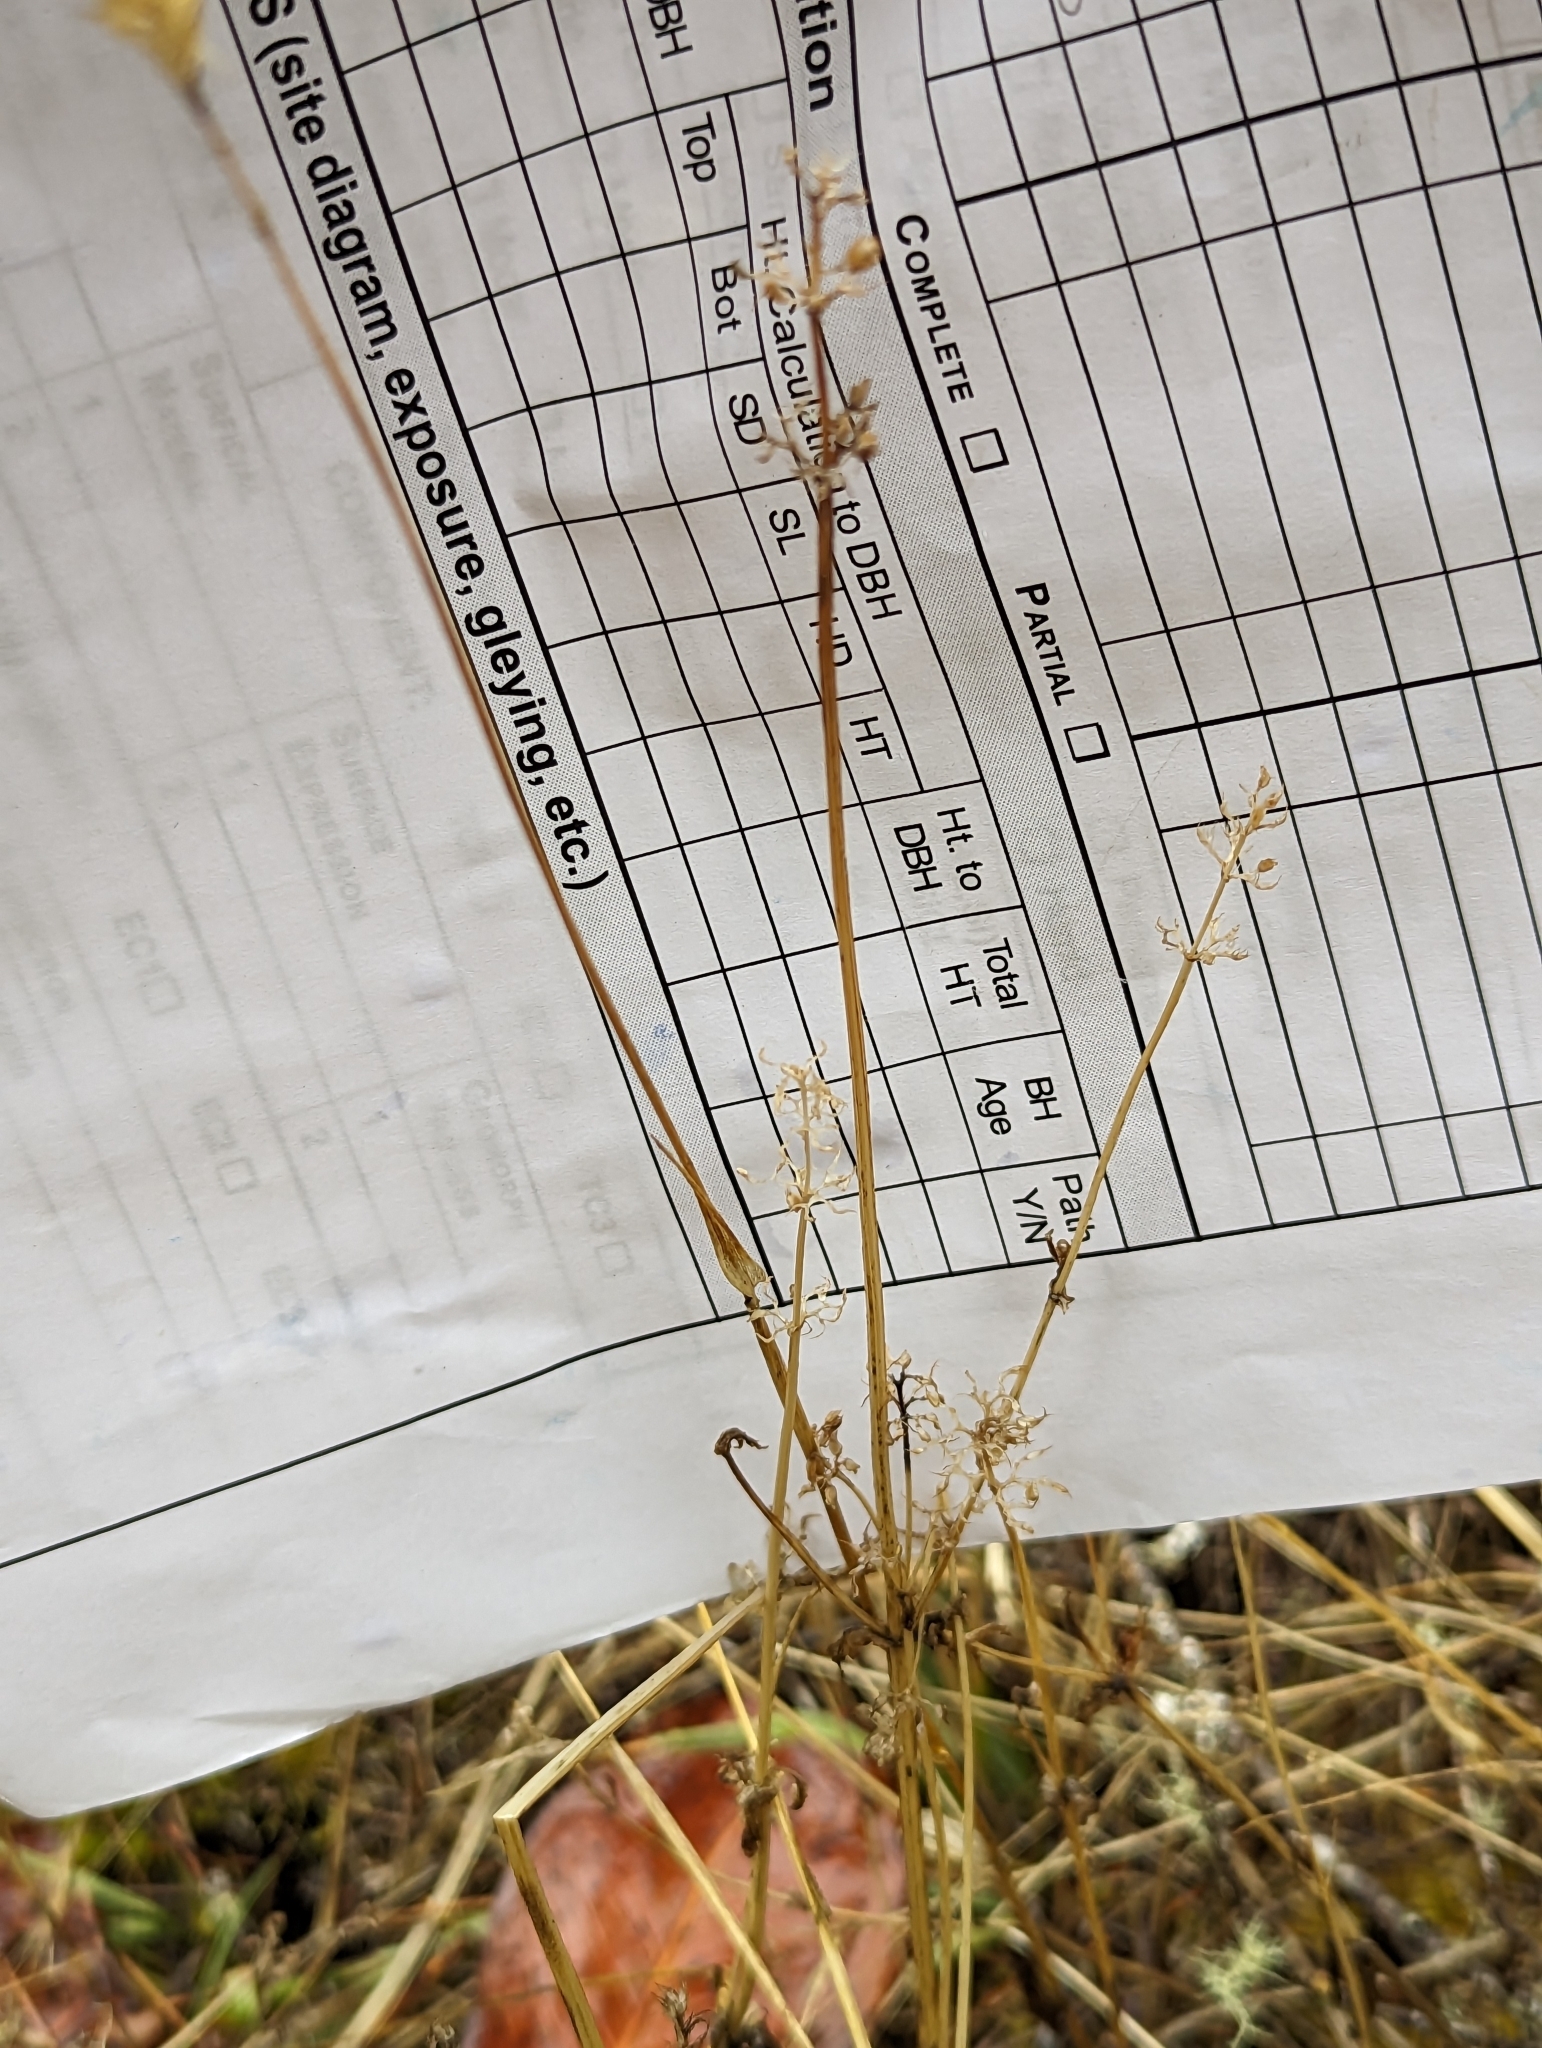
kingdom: Plantae
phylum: Tracheophyta
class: Magnoliopsida
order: Dipsacales
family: Caprifoliaceae
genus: Plectritis
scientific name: Plectritis congesta
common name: Pink plectritis
